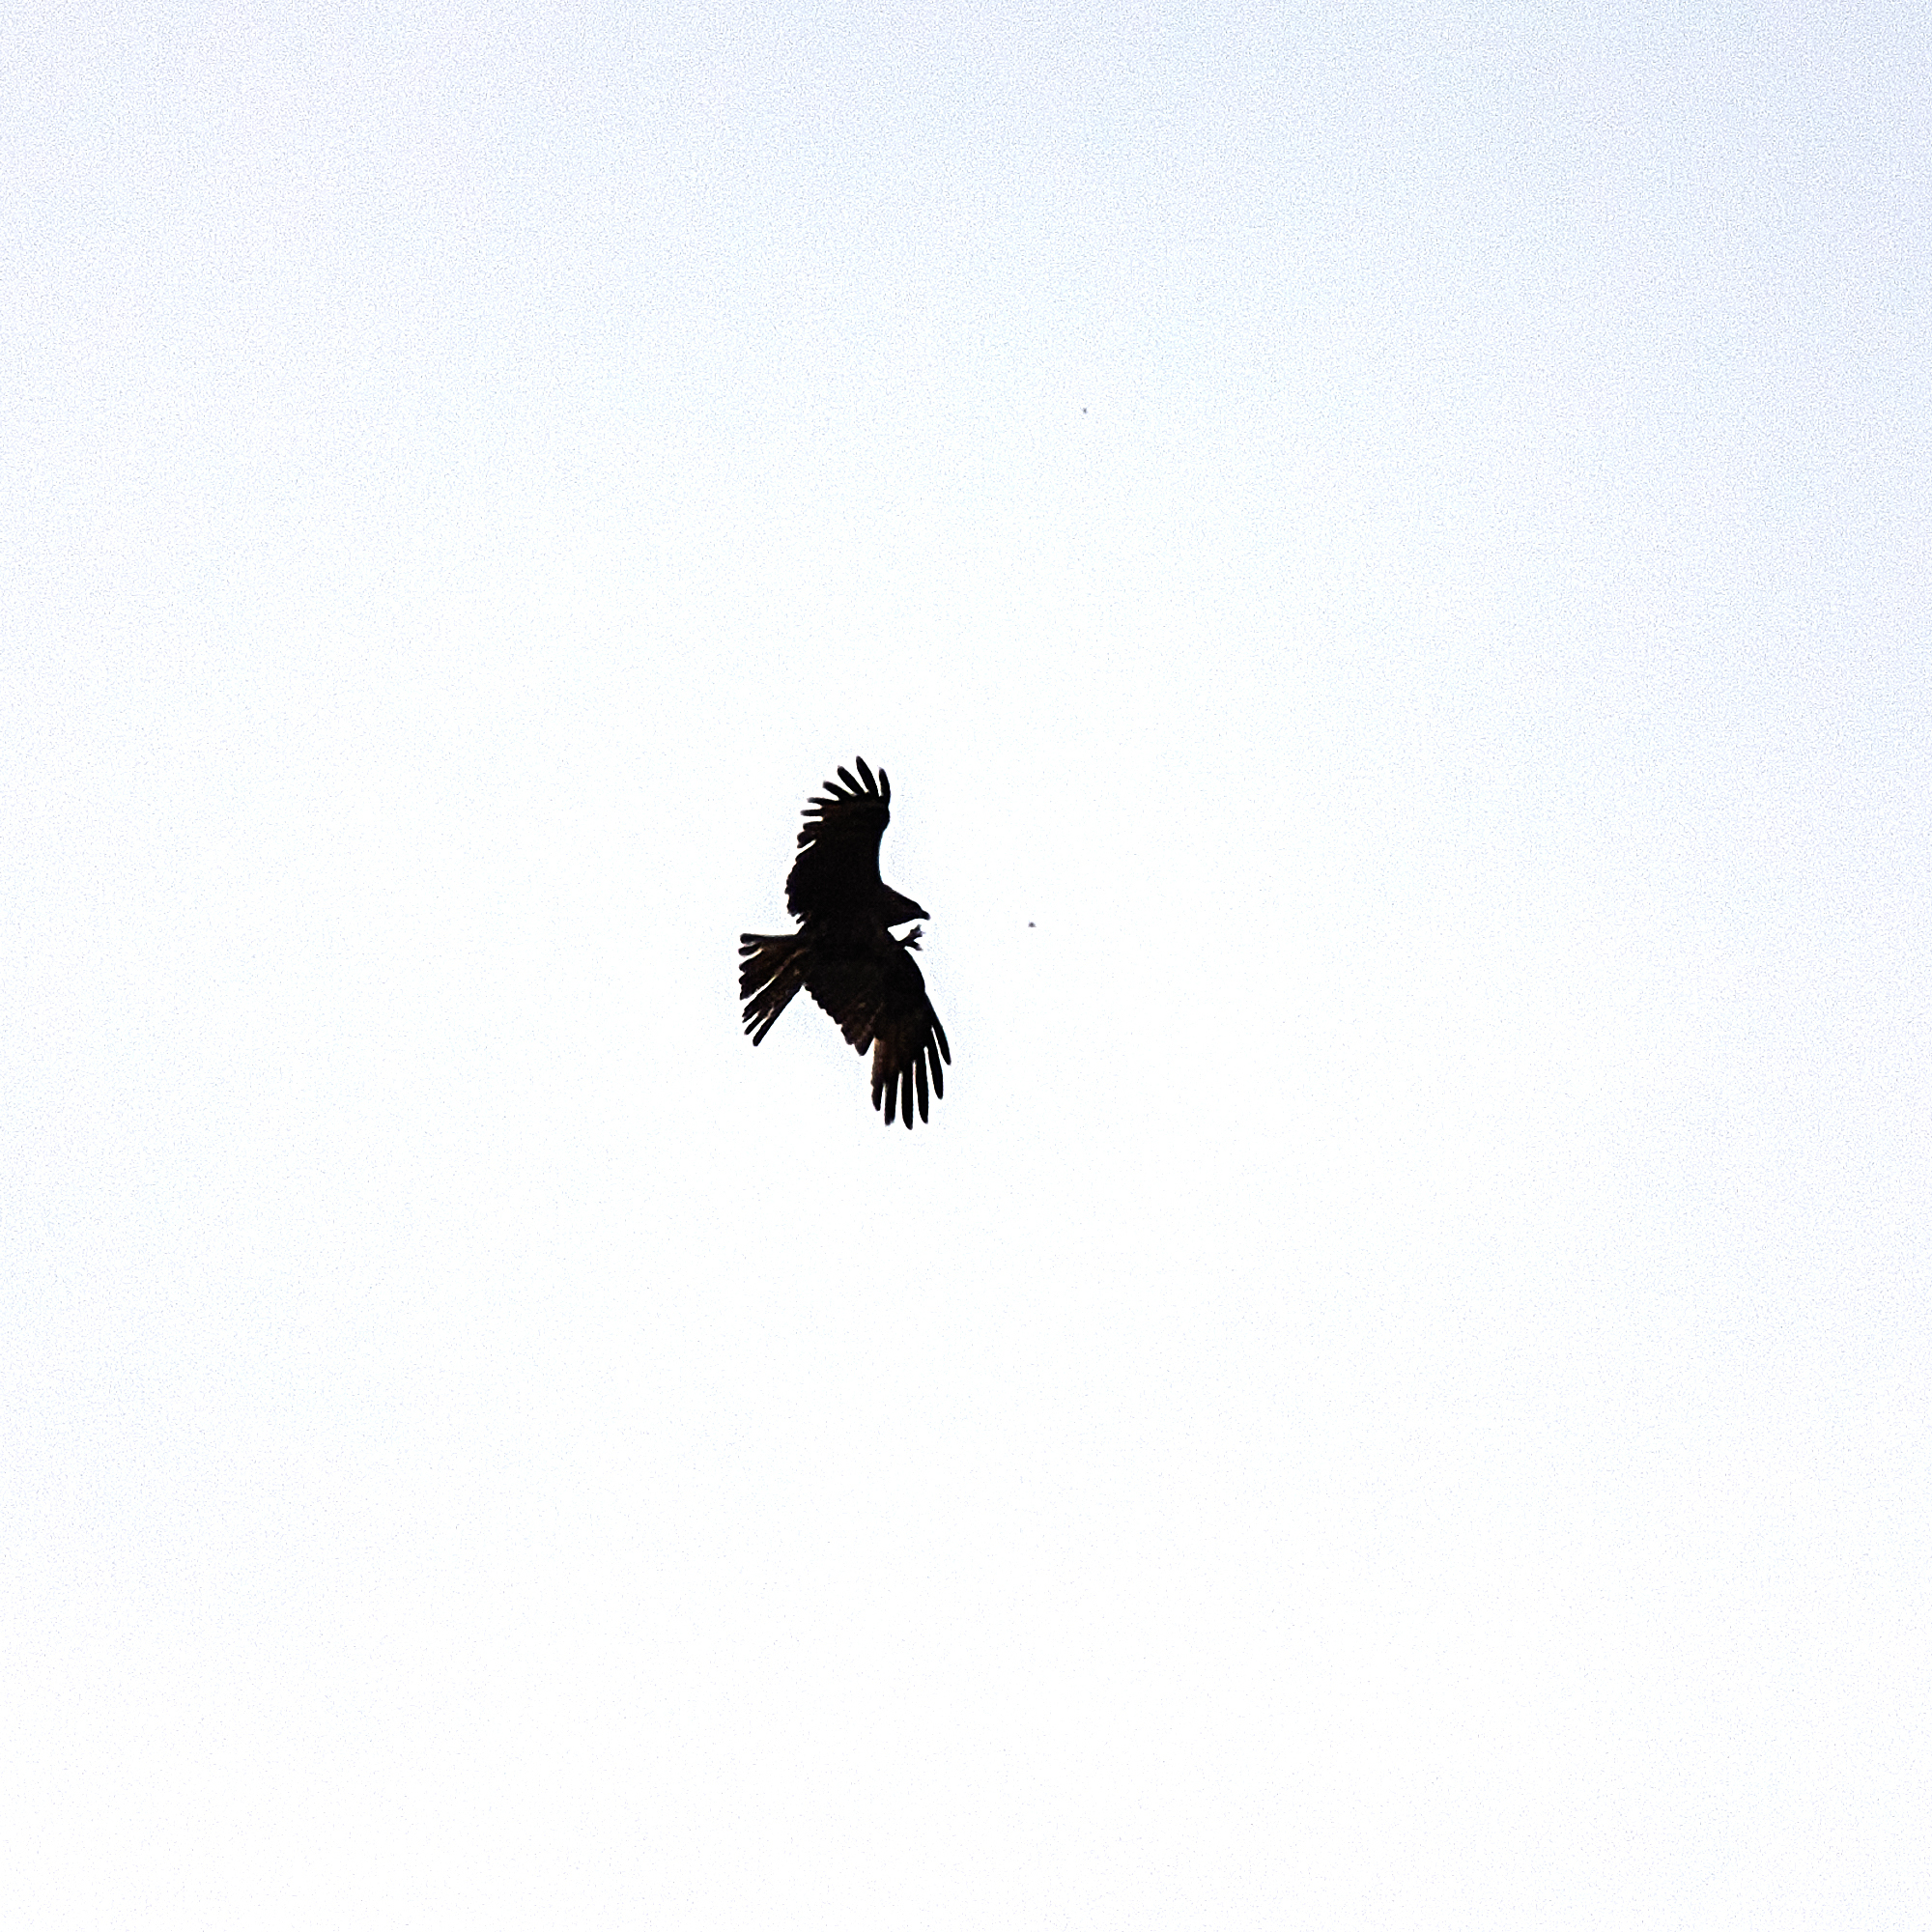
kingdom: Animalia
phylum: Chordata
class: Aves
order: Accipitriformes
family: Accipitridae
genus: Milvus
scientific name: Milvus migrans
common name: Black kite
